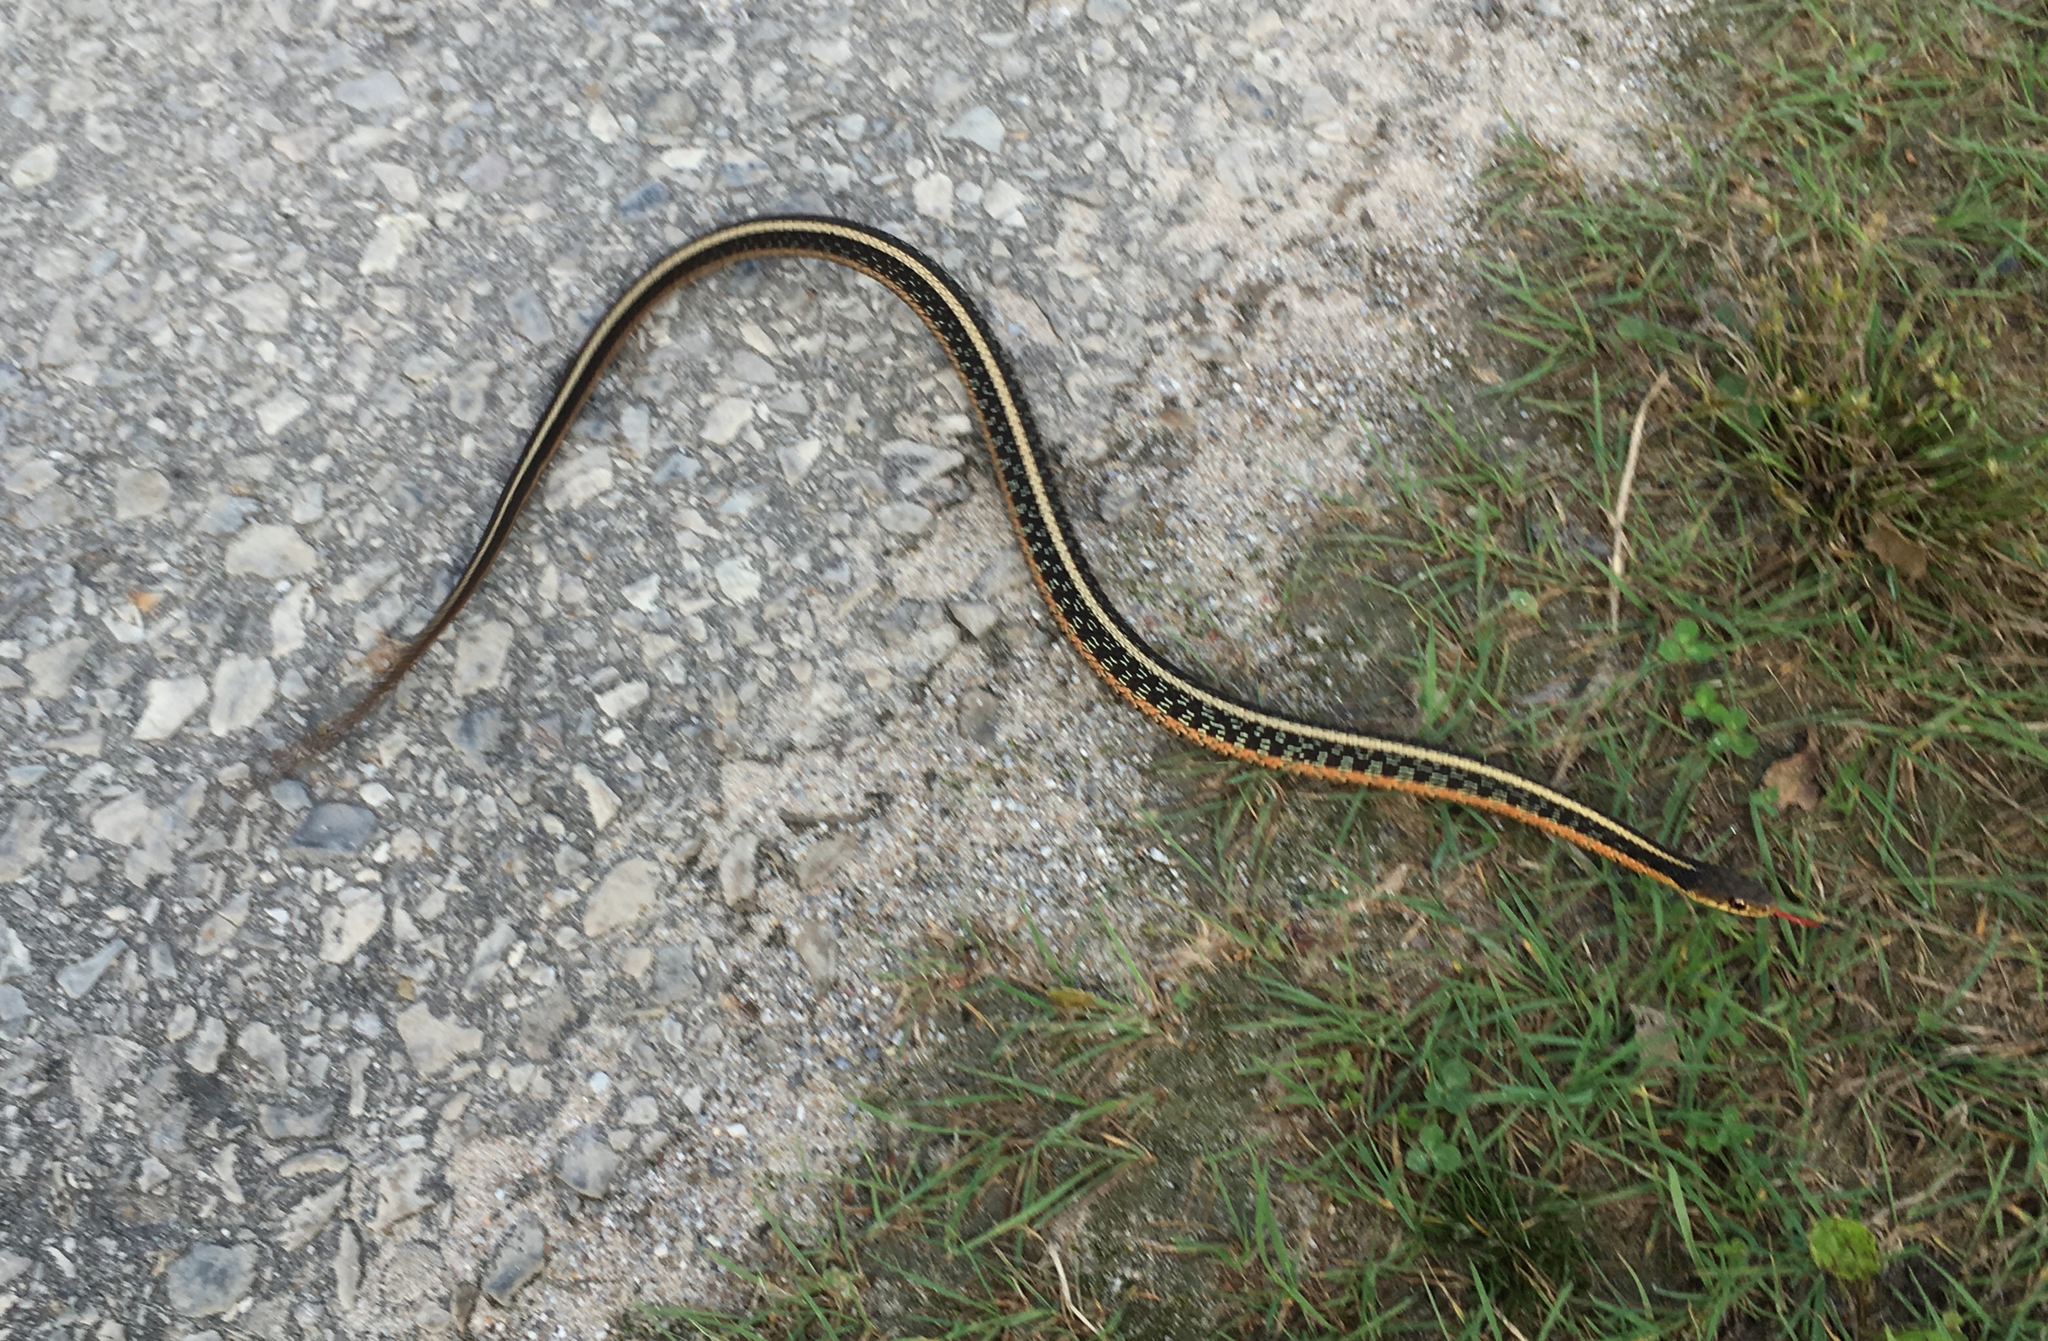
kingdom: Animalia
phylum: Chordata
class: Squamata
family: Colubridae
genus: Thamnophis
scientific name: Thamnophis sirtalis
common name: Common garter snake
